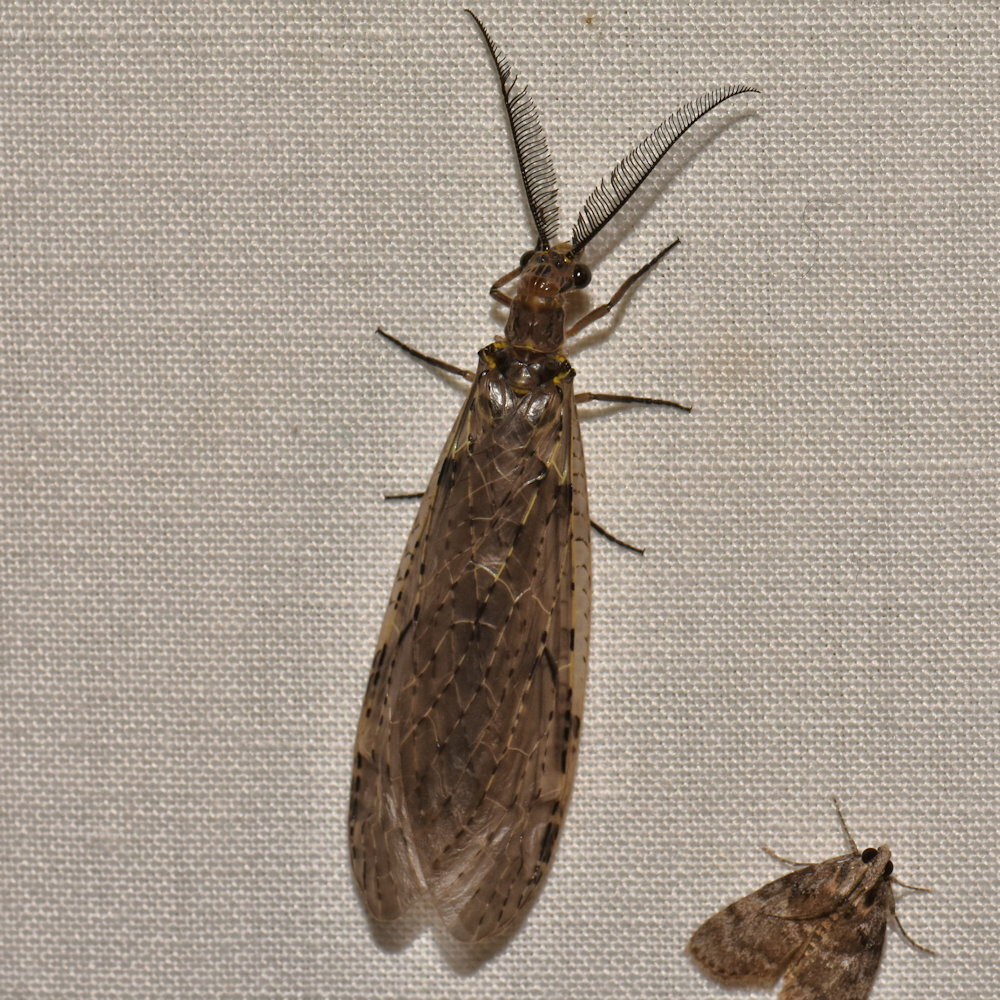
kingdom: Animalia
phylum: Arthropoda
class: Insecta
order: Megaloptera
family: Corydalidae
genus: Chauliodes
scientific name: Chauliodes rastricornis
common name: Spring fishfly
